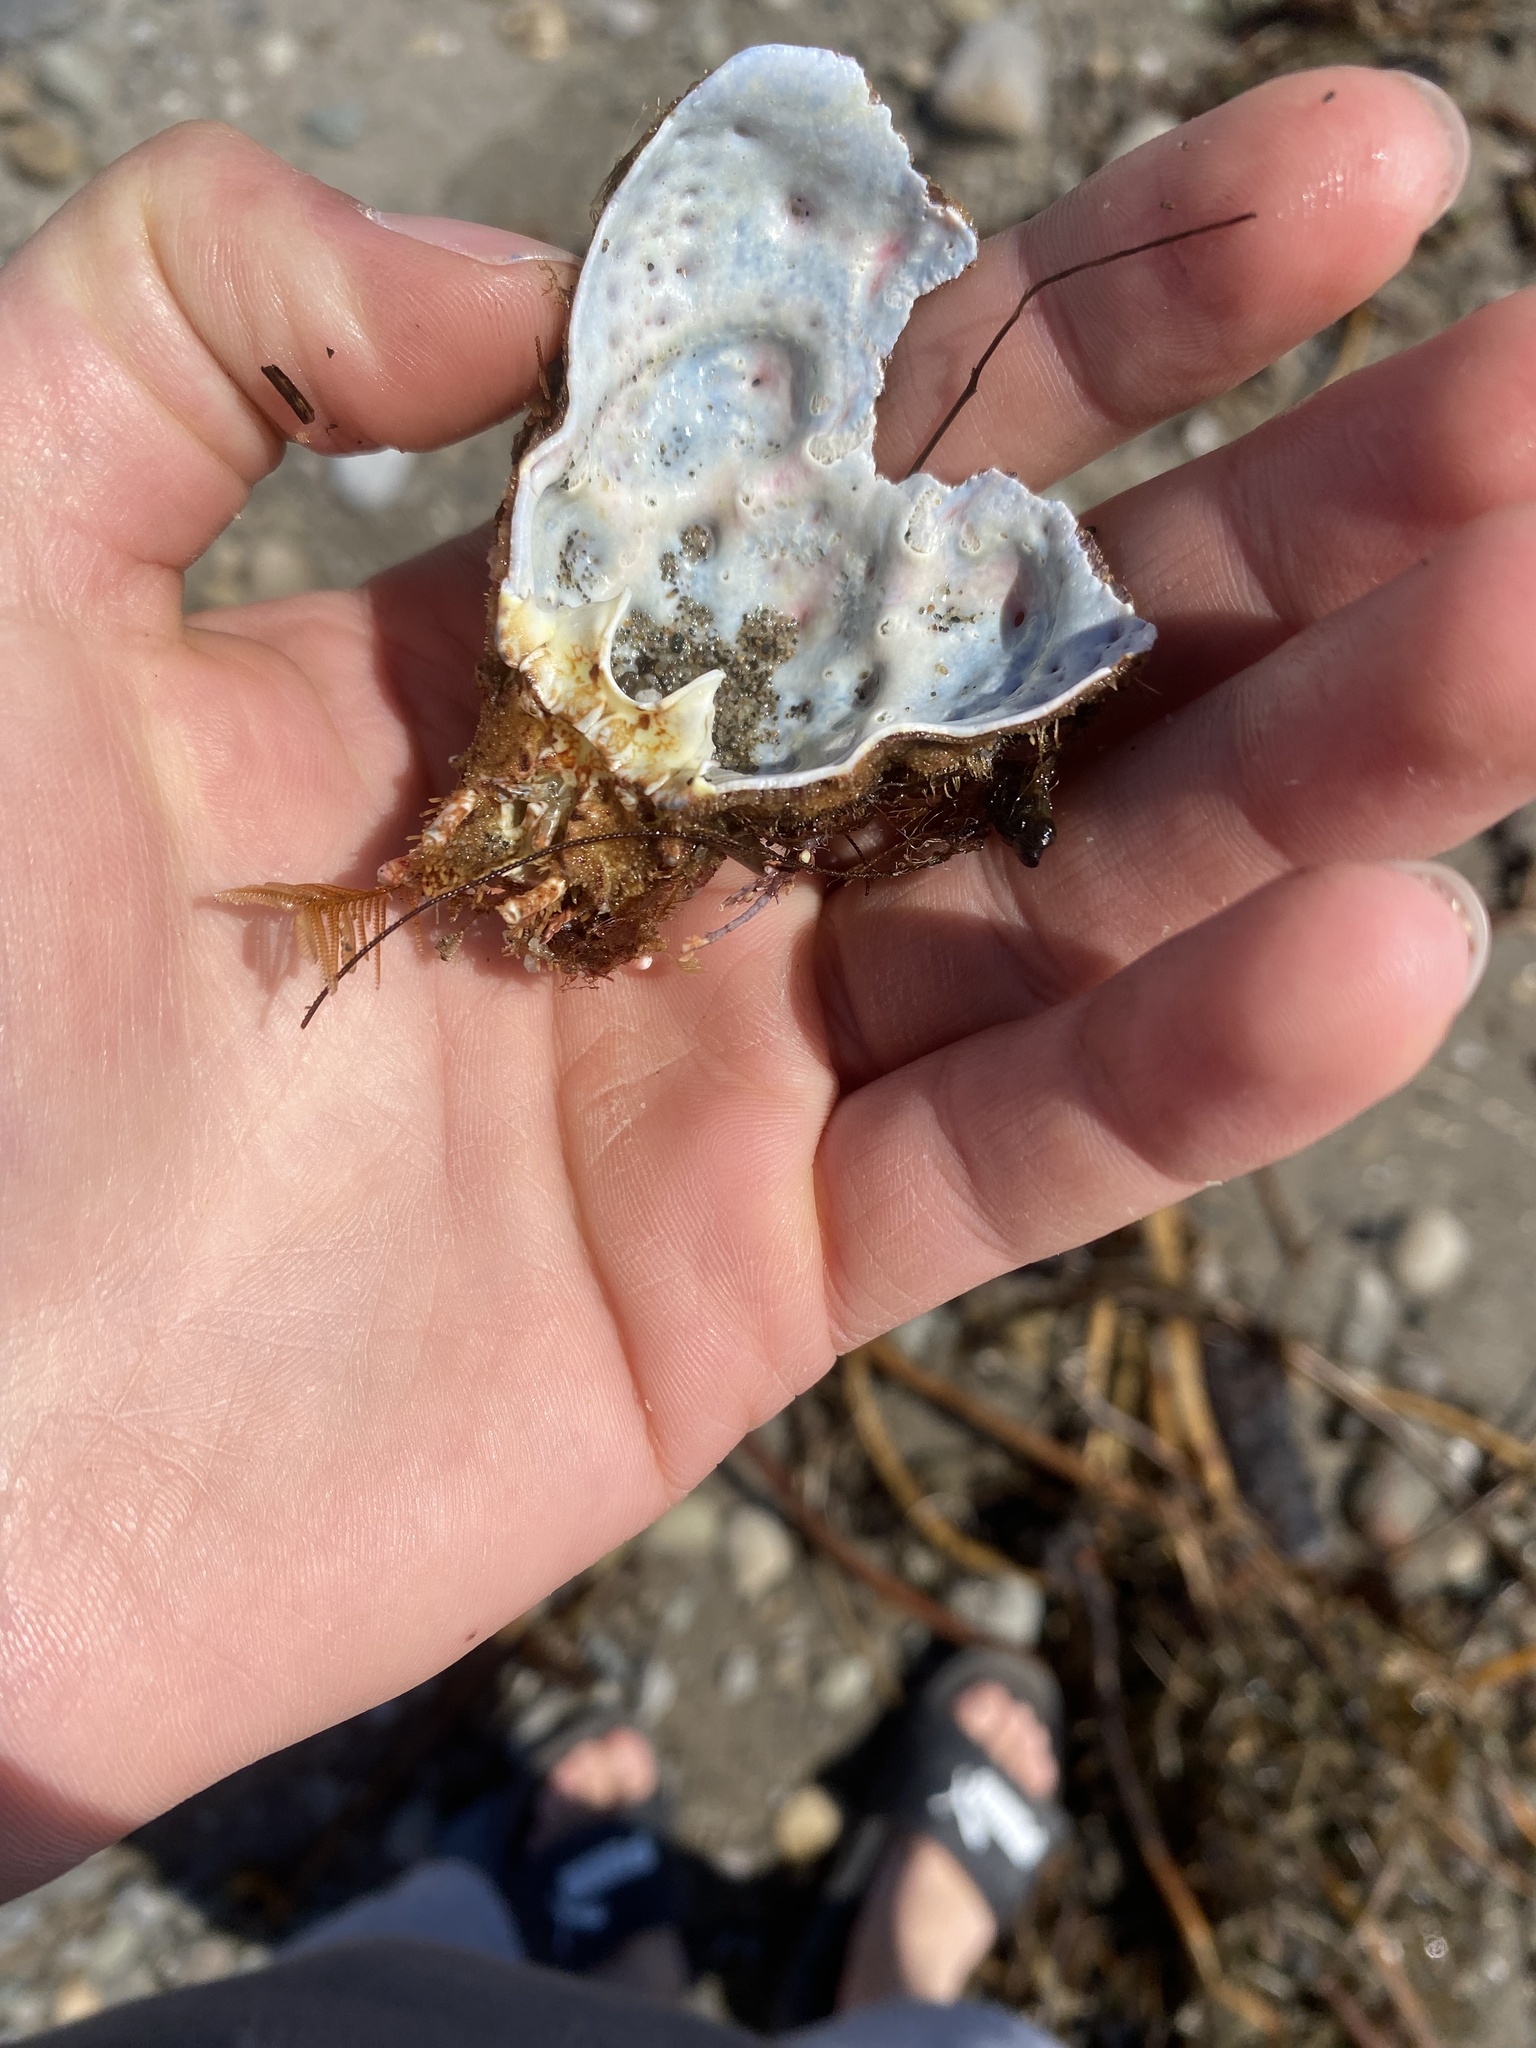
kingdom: Animalia
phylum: Arthropoda
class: Malacostraca
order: Decapoda
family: Epialtidae
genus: Loxorhynchus
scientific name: Loxorhynchus crispatus
